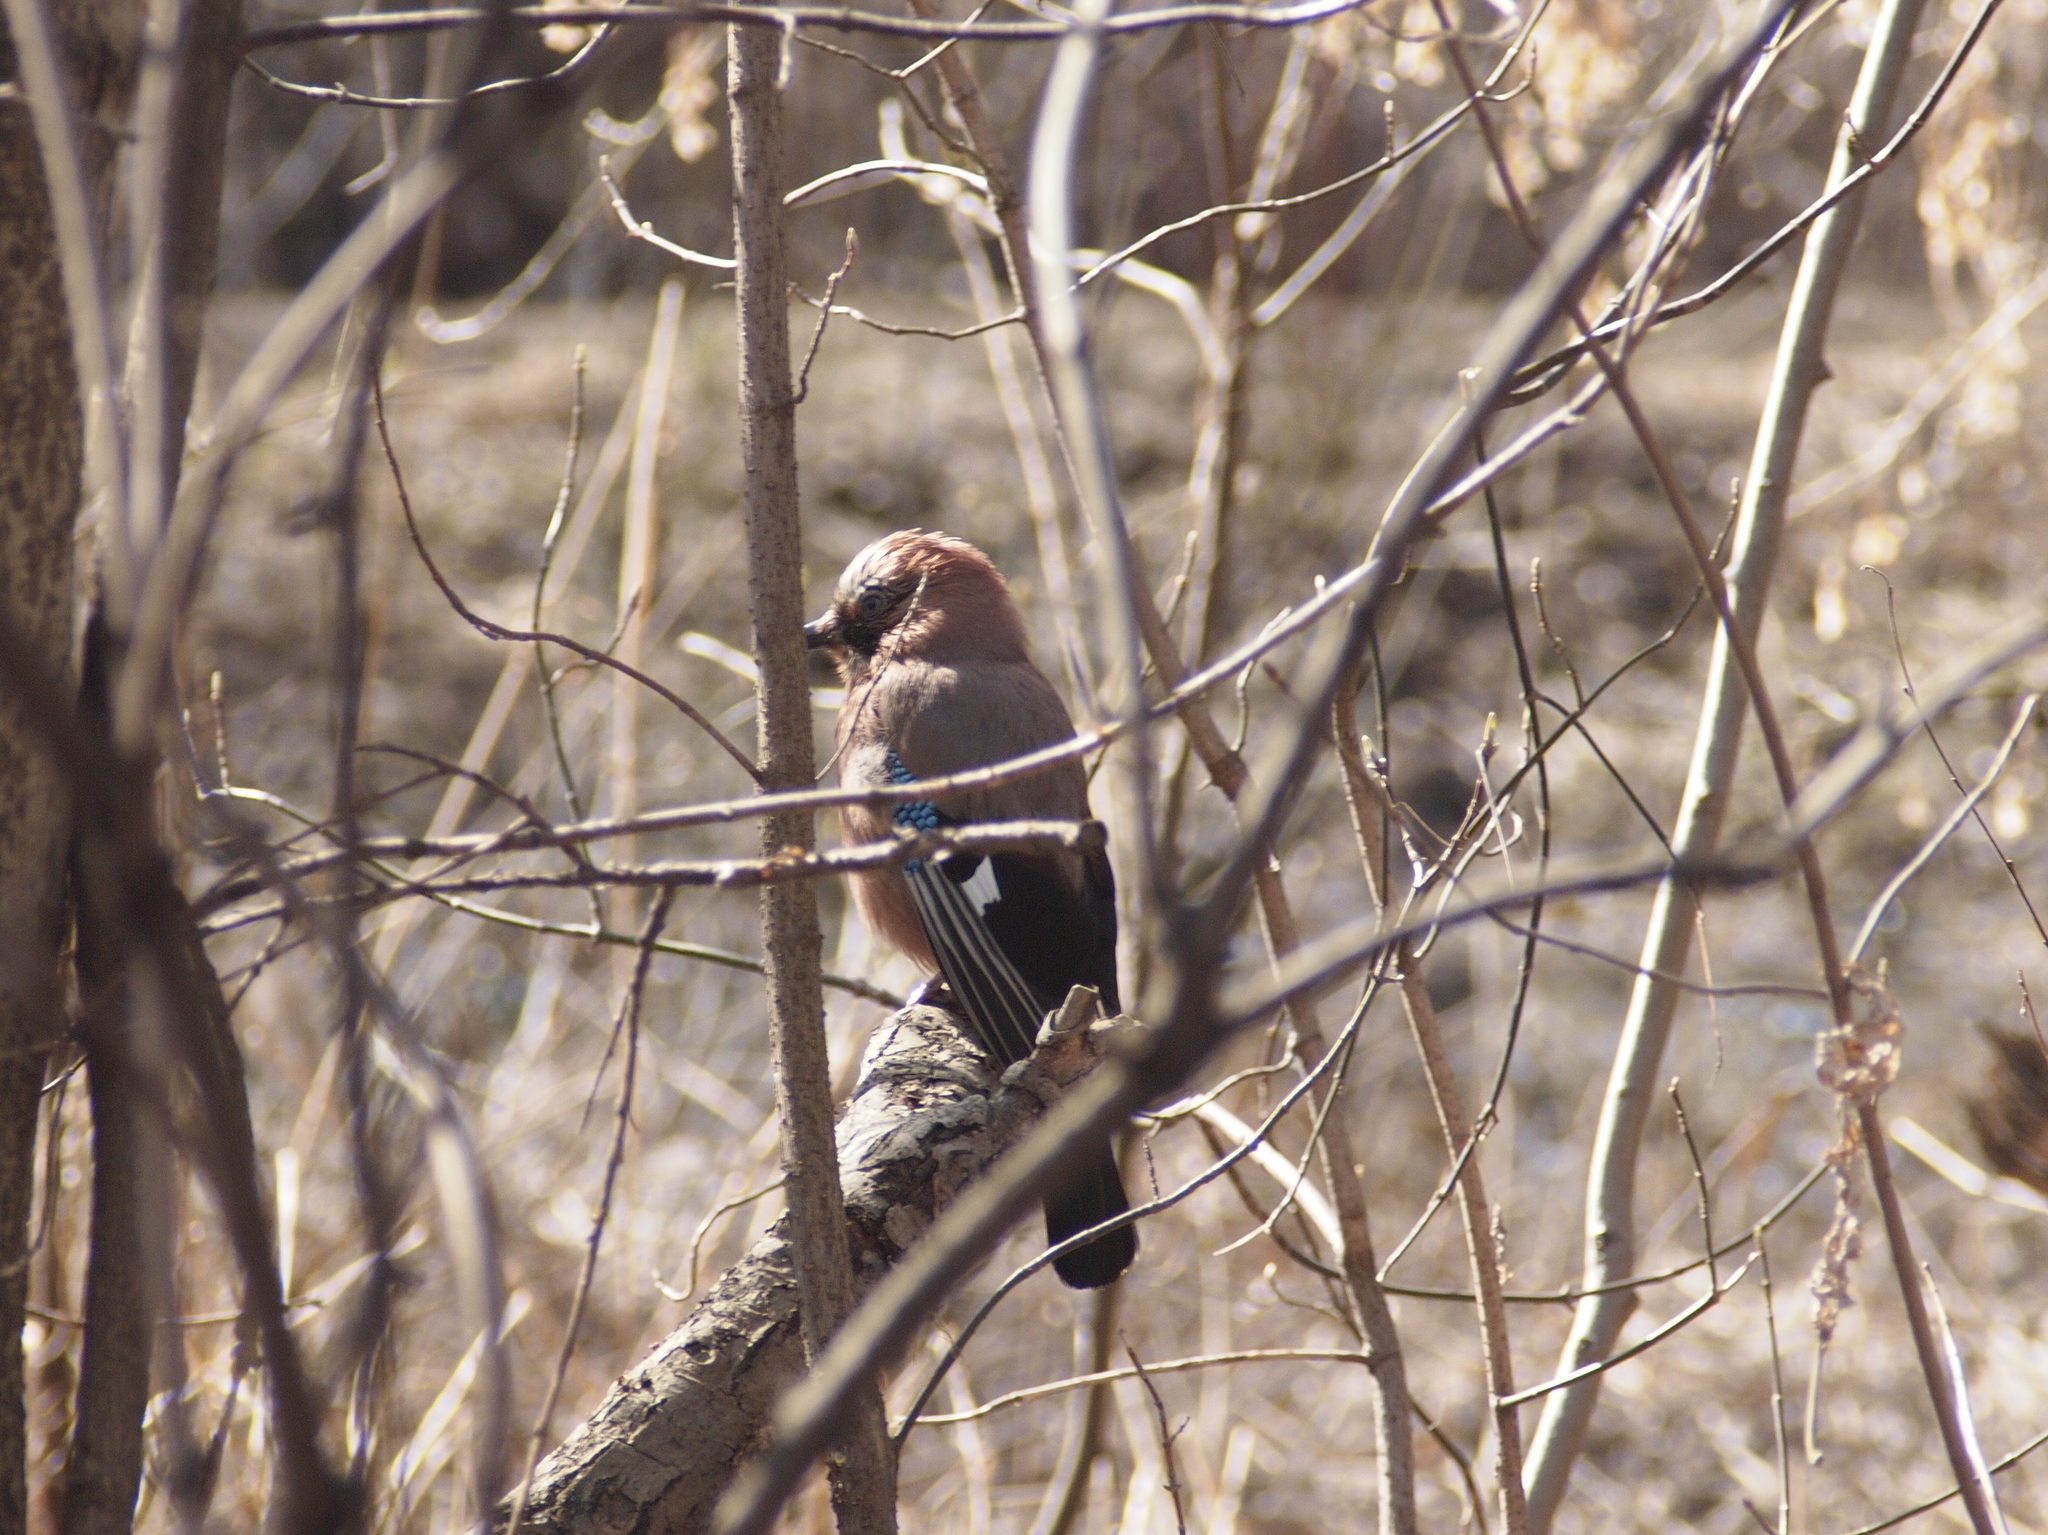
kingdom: Animalia
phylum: Chordata
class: Aves
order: Passeriformes
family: Corvidae
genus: Garrulus
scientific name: Garrulus glandarius
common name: Eurasian jay
